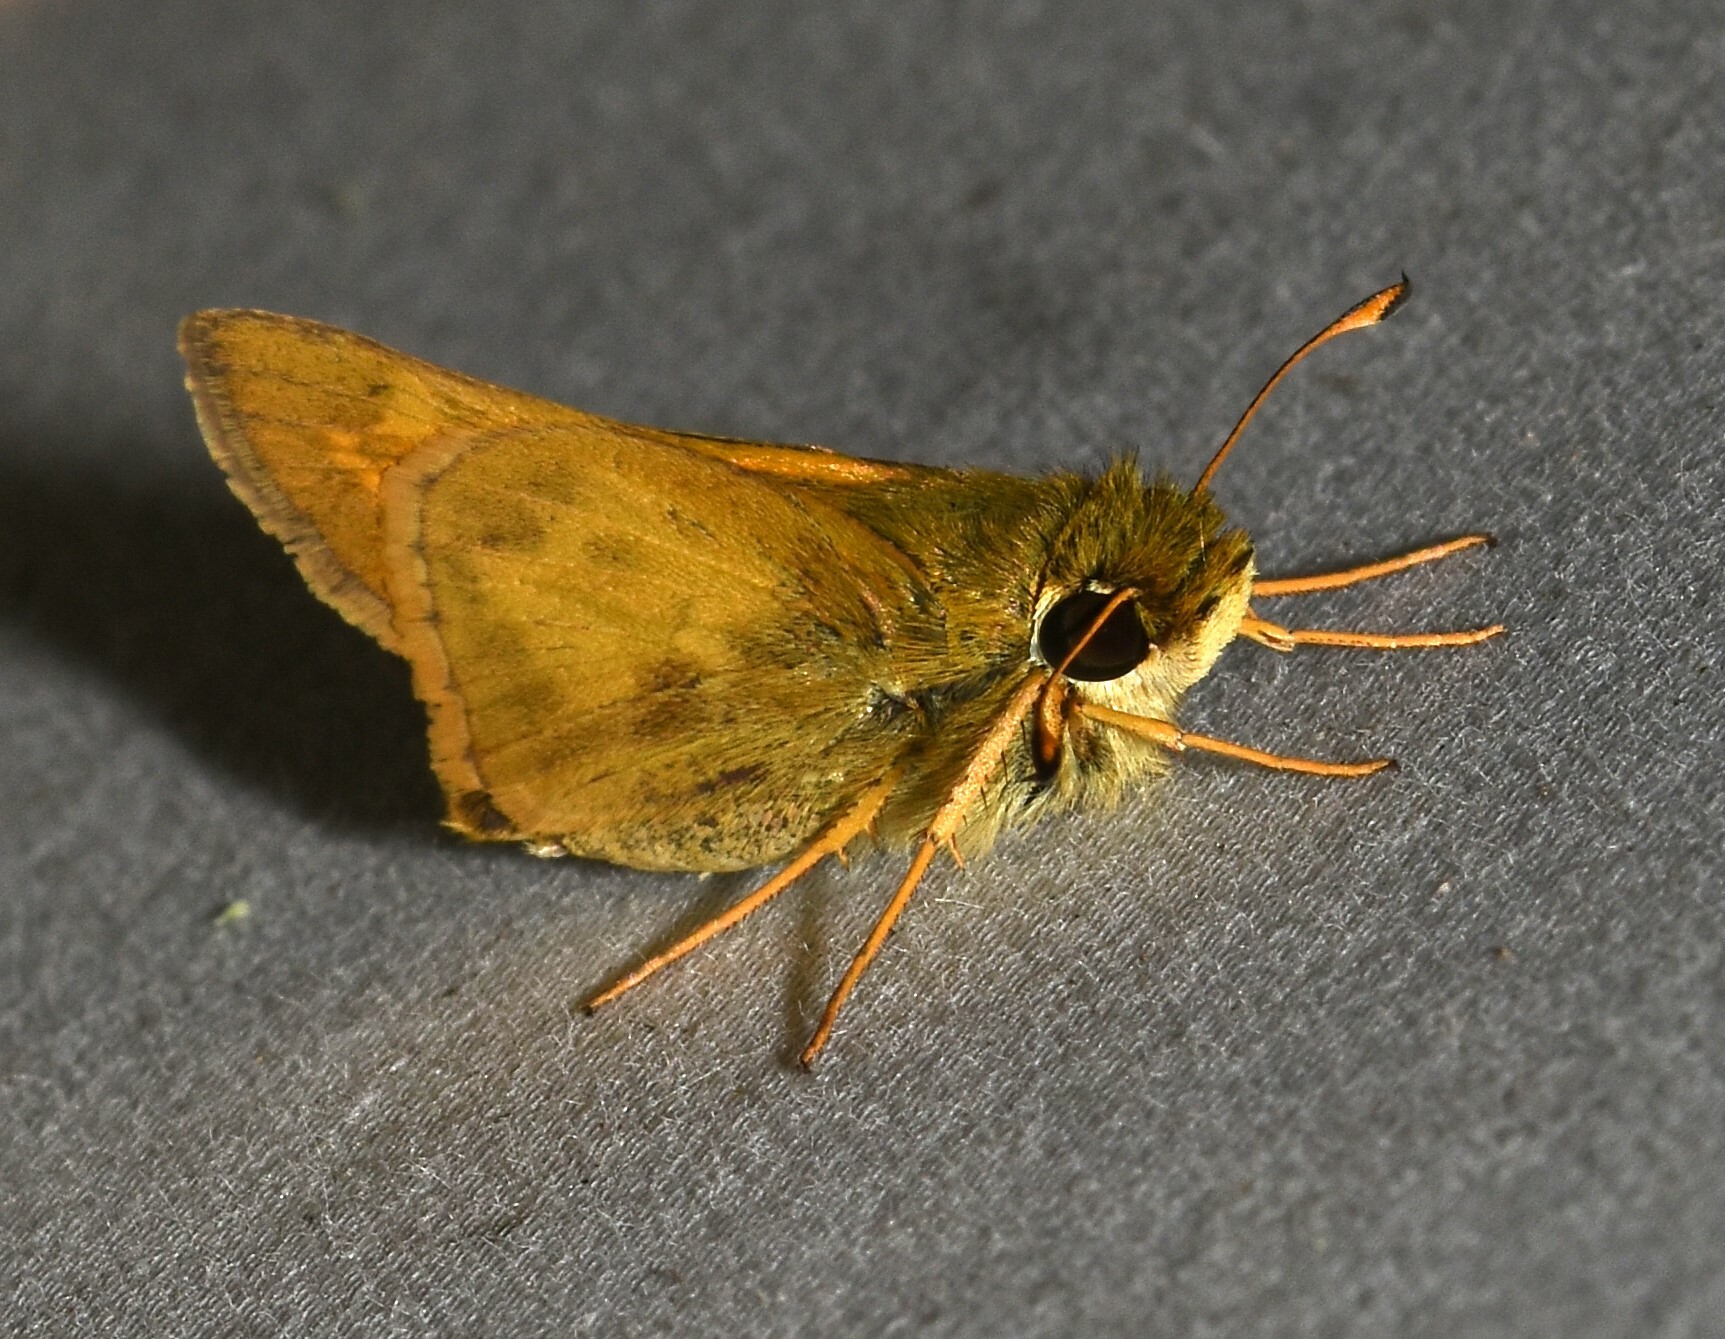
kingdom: Animalia
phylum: Arthropoda
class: Insecta
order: Lepidoptera
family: Hesperiidae
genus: Atalopedes
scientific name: Atalopedes
